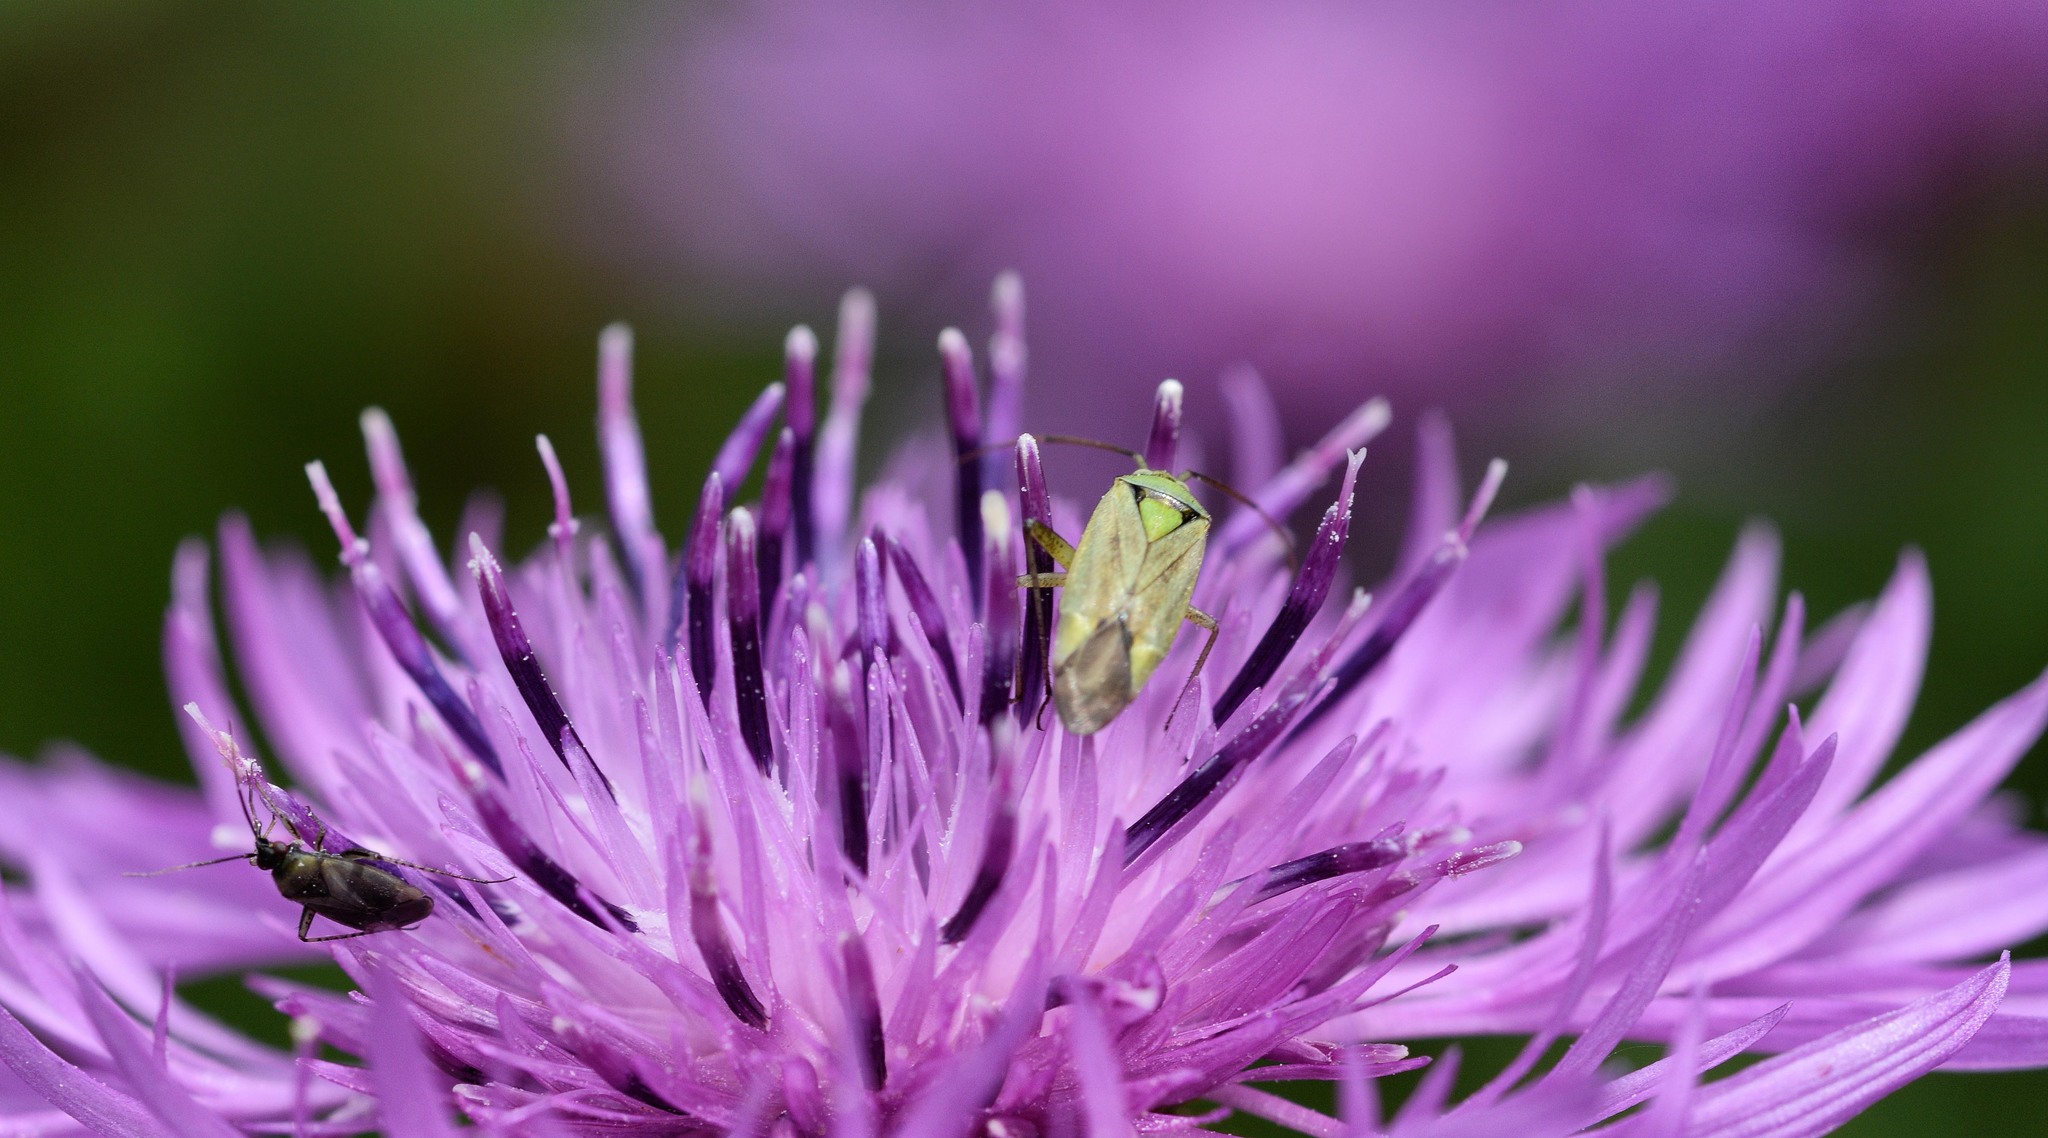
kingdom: Animalia
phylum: Arthropoda
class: Insecta
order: Hemiptera
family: Miridae
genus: Closterotomus
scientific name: Closterotomus norvegicus
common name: Plant bug
